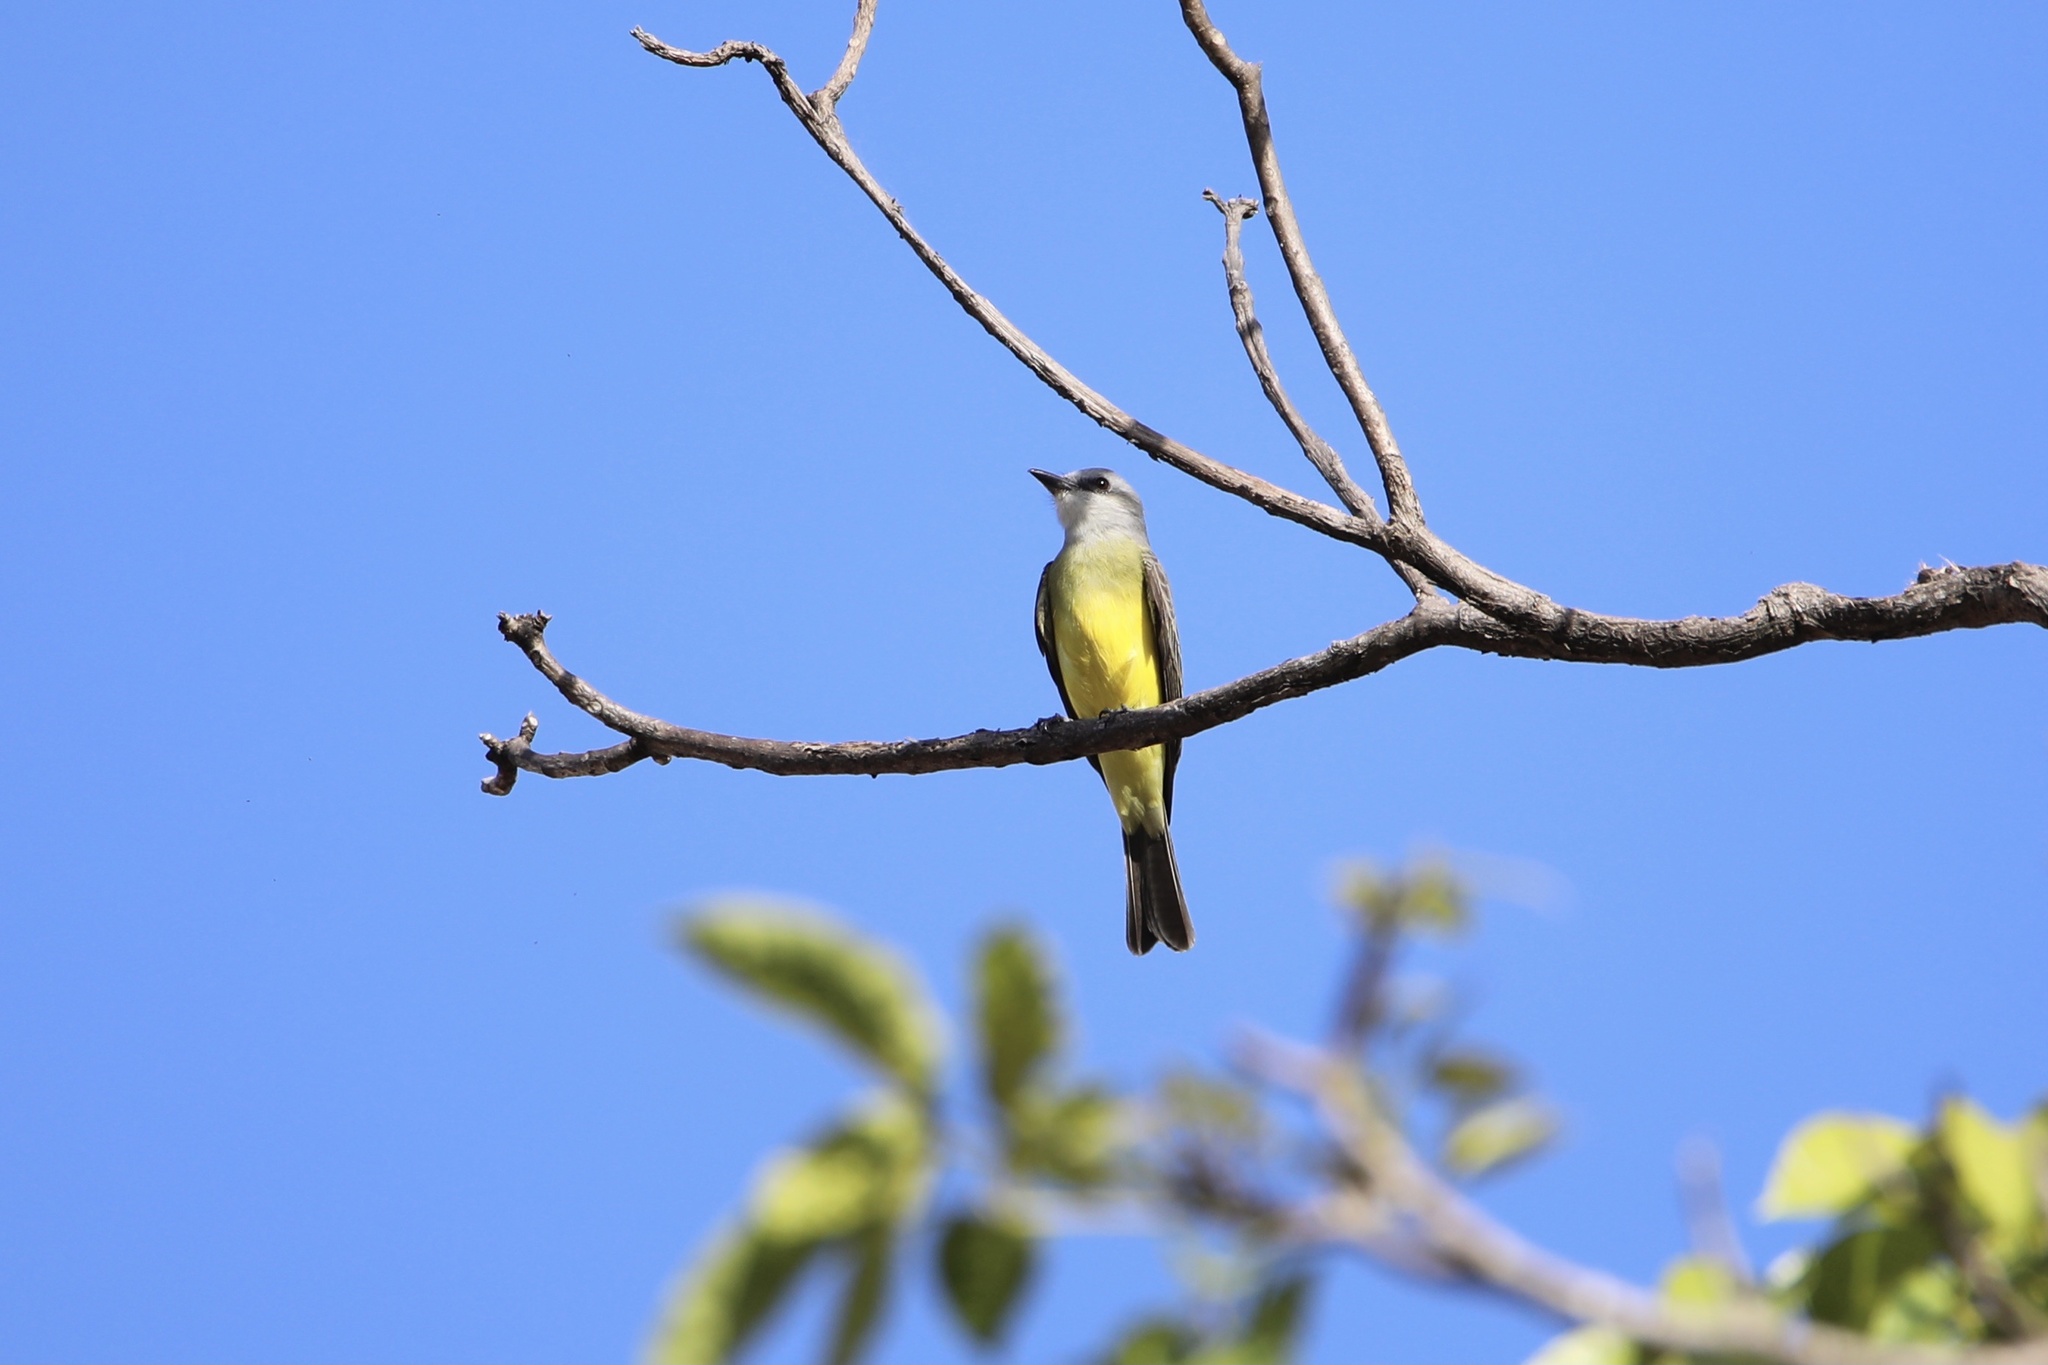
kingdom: Animalia
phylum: Chordata
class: Aves
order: Passeriformes
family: Tyrannidae
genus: Tyrannus
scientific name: Tyrannus melancholicus
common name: Tropical kingbird
